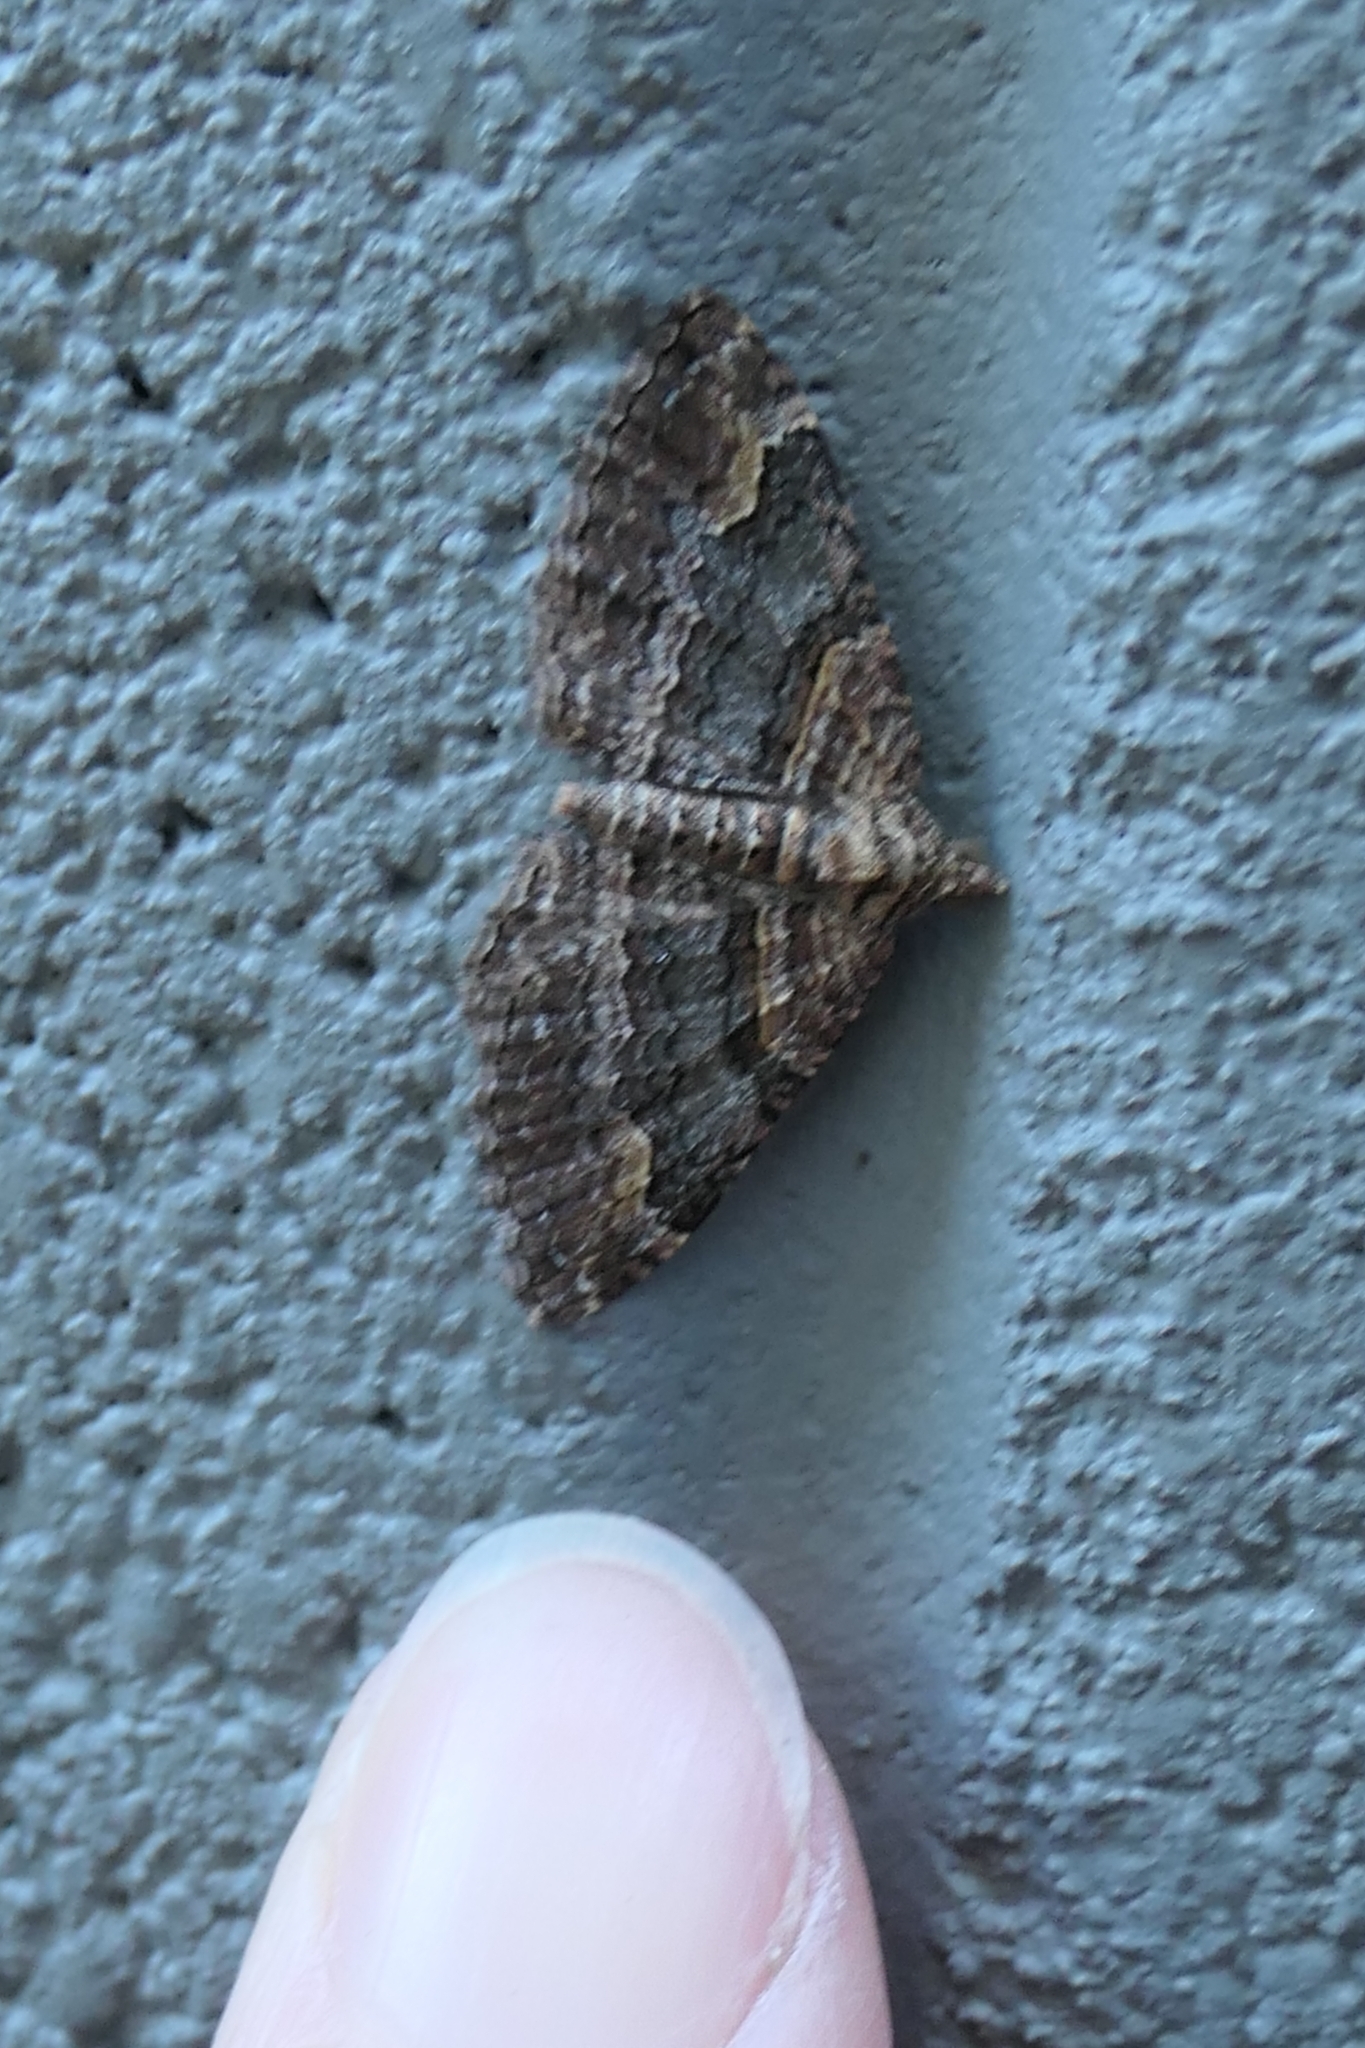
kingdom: Animalia
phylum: Arthropoda
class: Insecta
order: Lepidoptera
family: Geometridae
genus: Epyaxa
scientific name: Epyaxa lucidata
